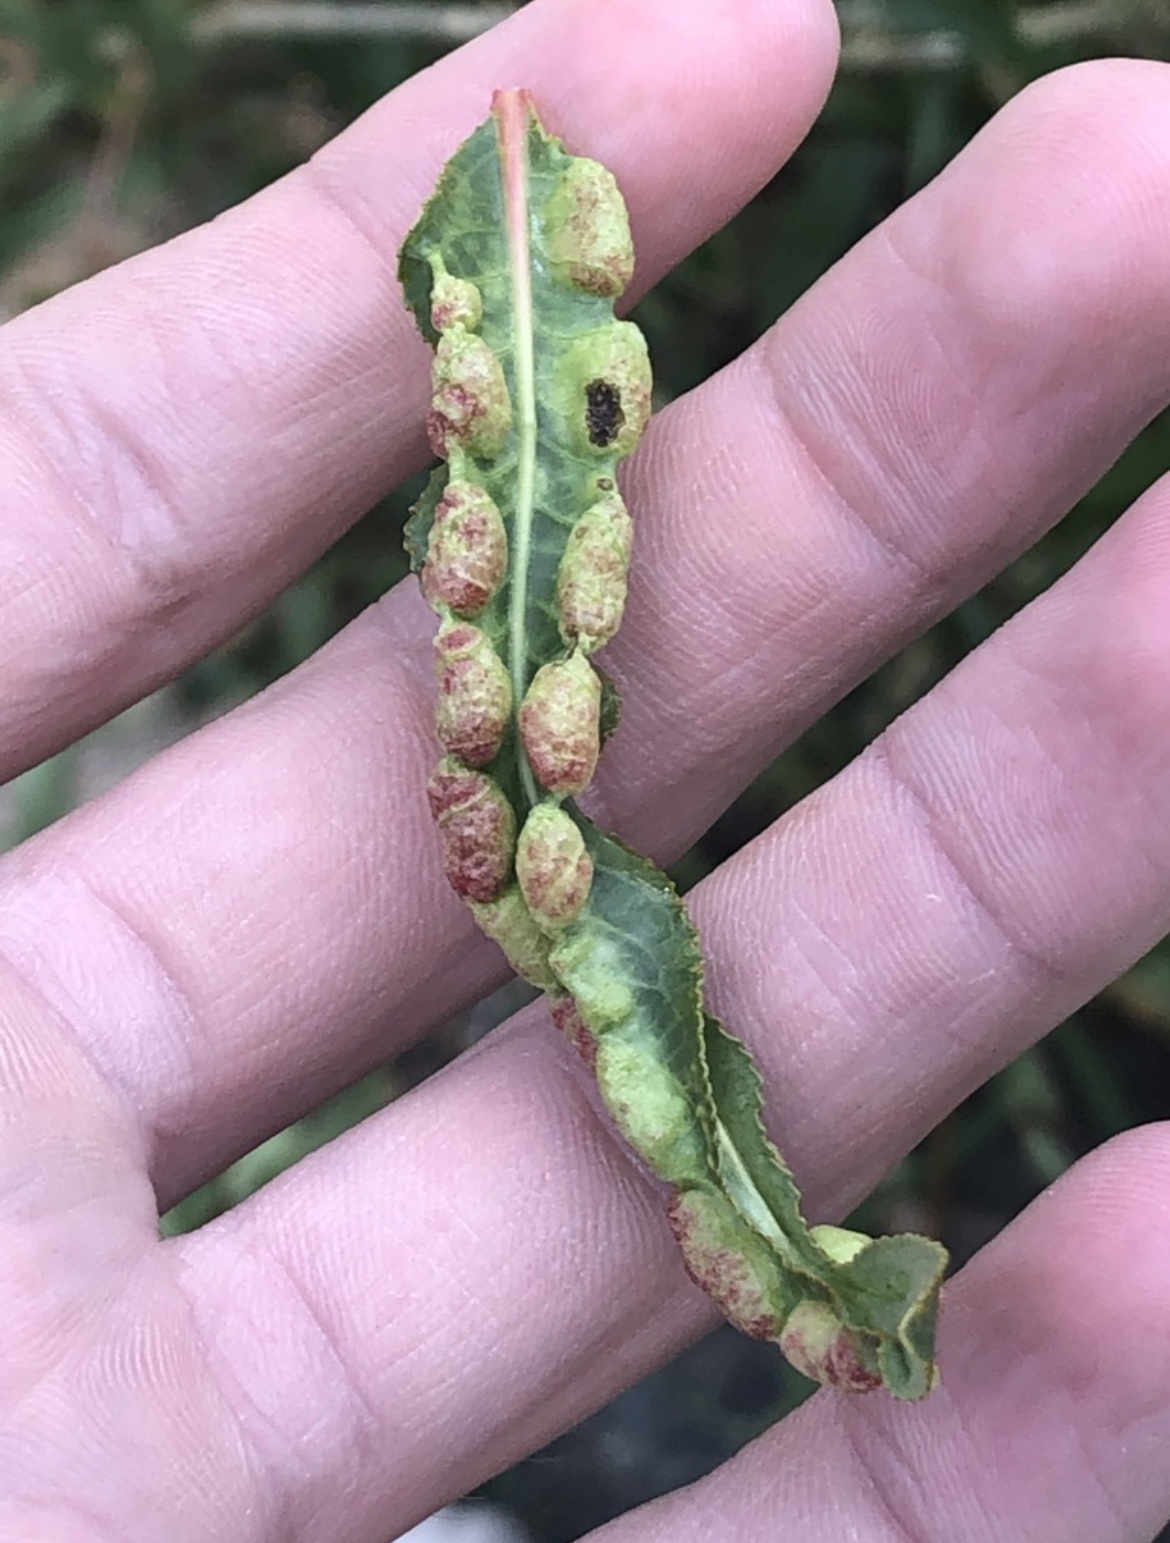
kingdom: Animalia
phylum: Arthropoda
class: Insecta
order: Hemiptera
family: Aphididae
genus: Thecabius
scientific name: Thecabius populimonilis
